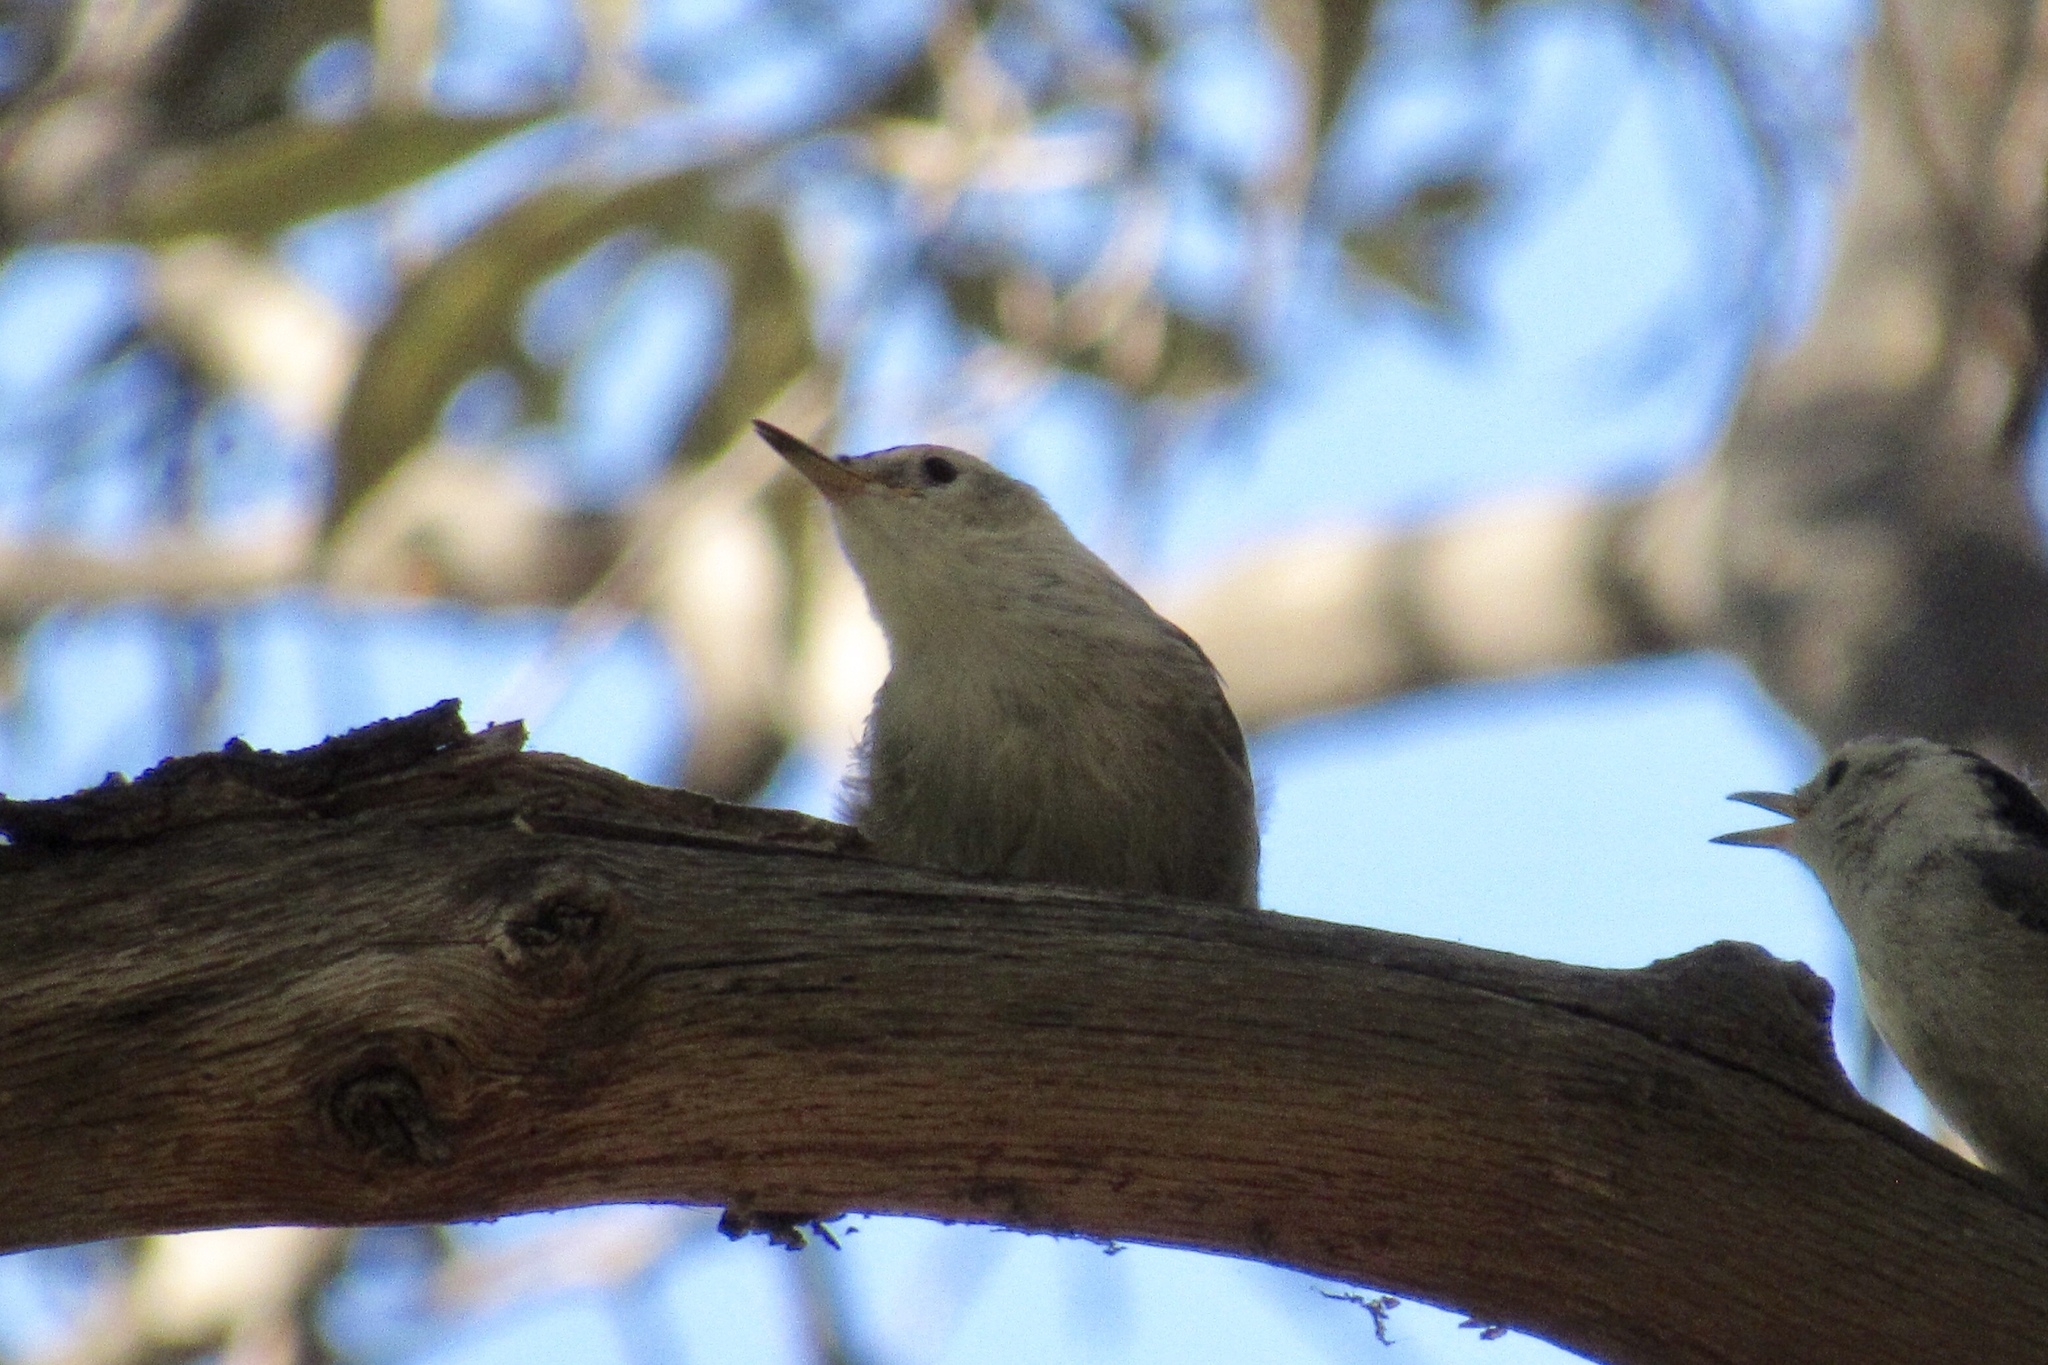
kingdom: Animalia
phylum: Chordata
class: Aves
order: Passeriformes
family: Sittidae
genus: Sitta
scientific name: Sitta carolinensis
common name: White-breasted nuthatch
